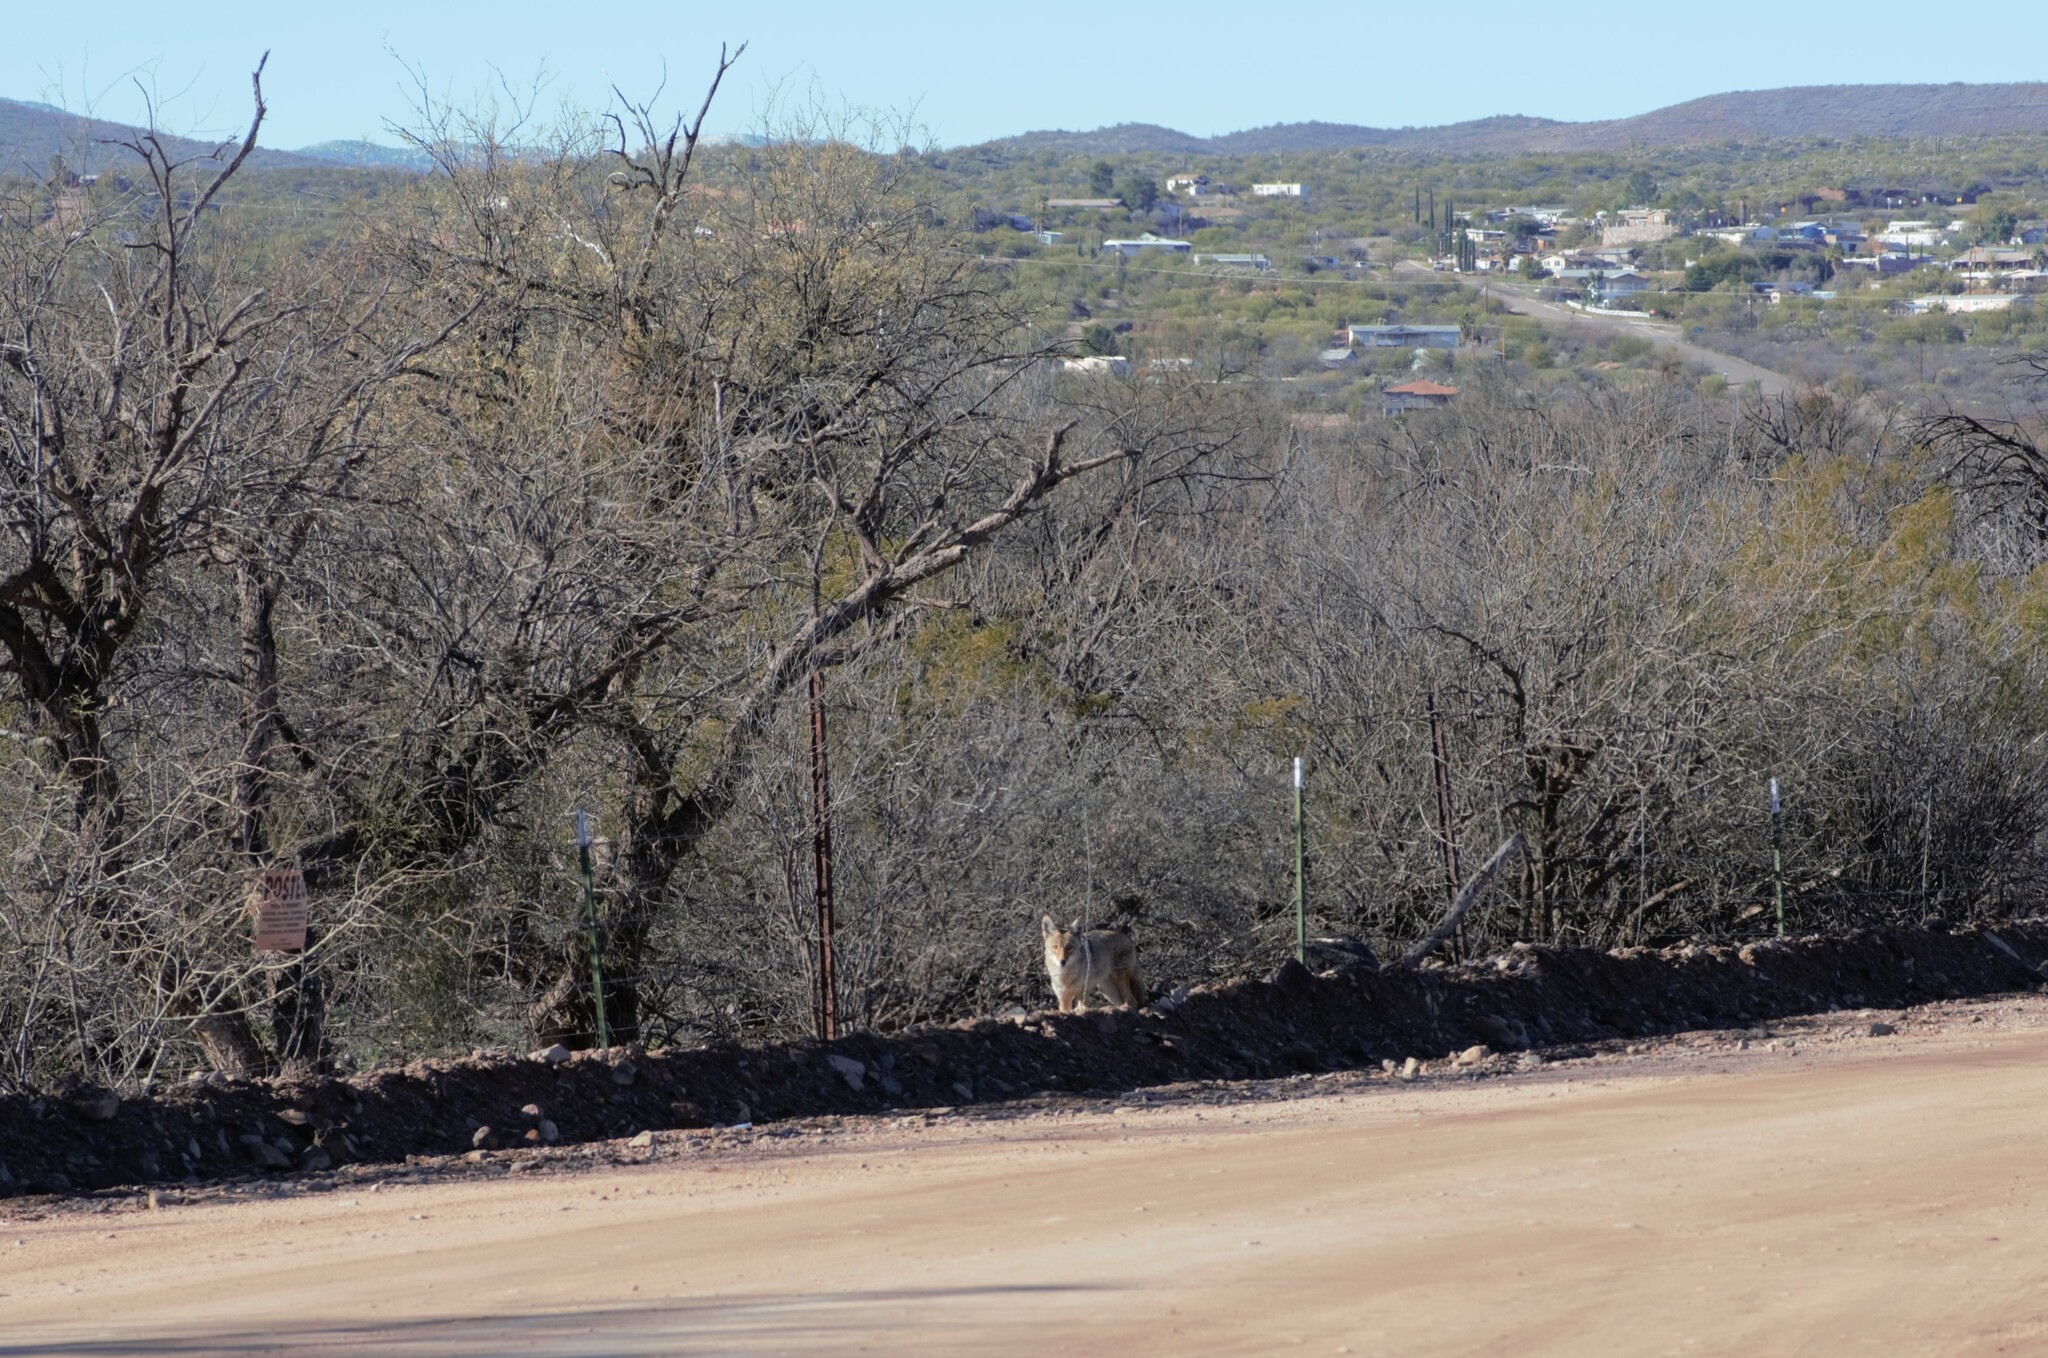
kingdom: Animalia
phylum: Chordata
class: Mammalia
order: Carnivora
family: Canidae
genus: Canis
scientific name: Canis latrans
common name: Coyote
